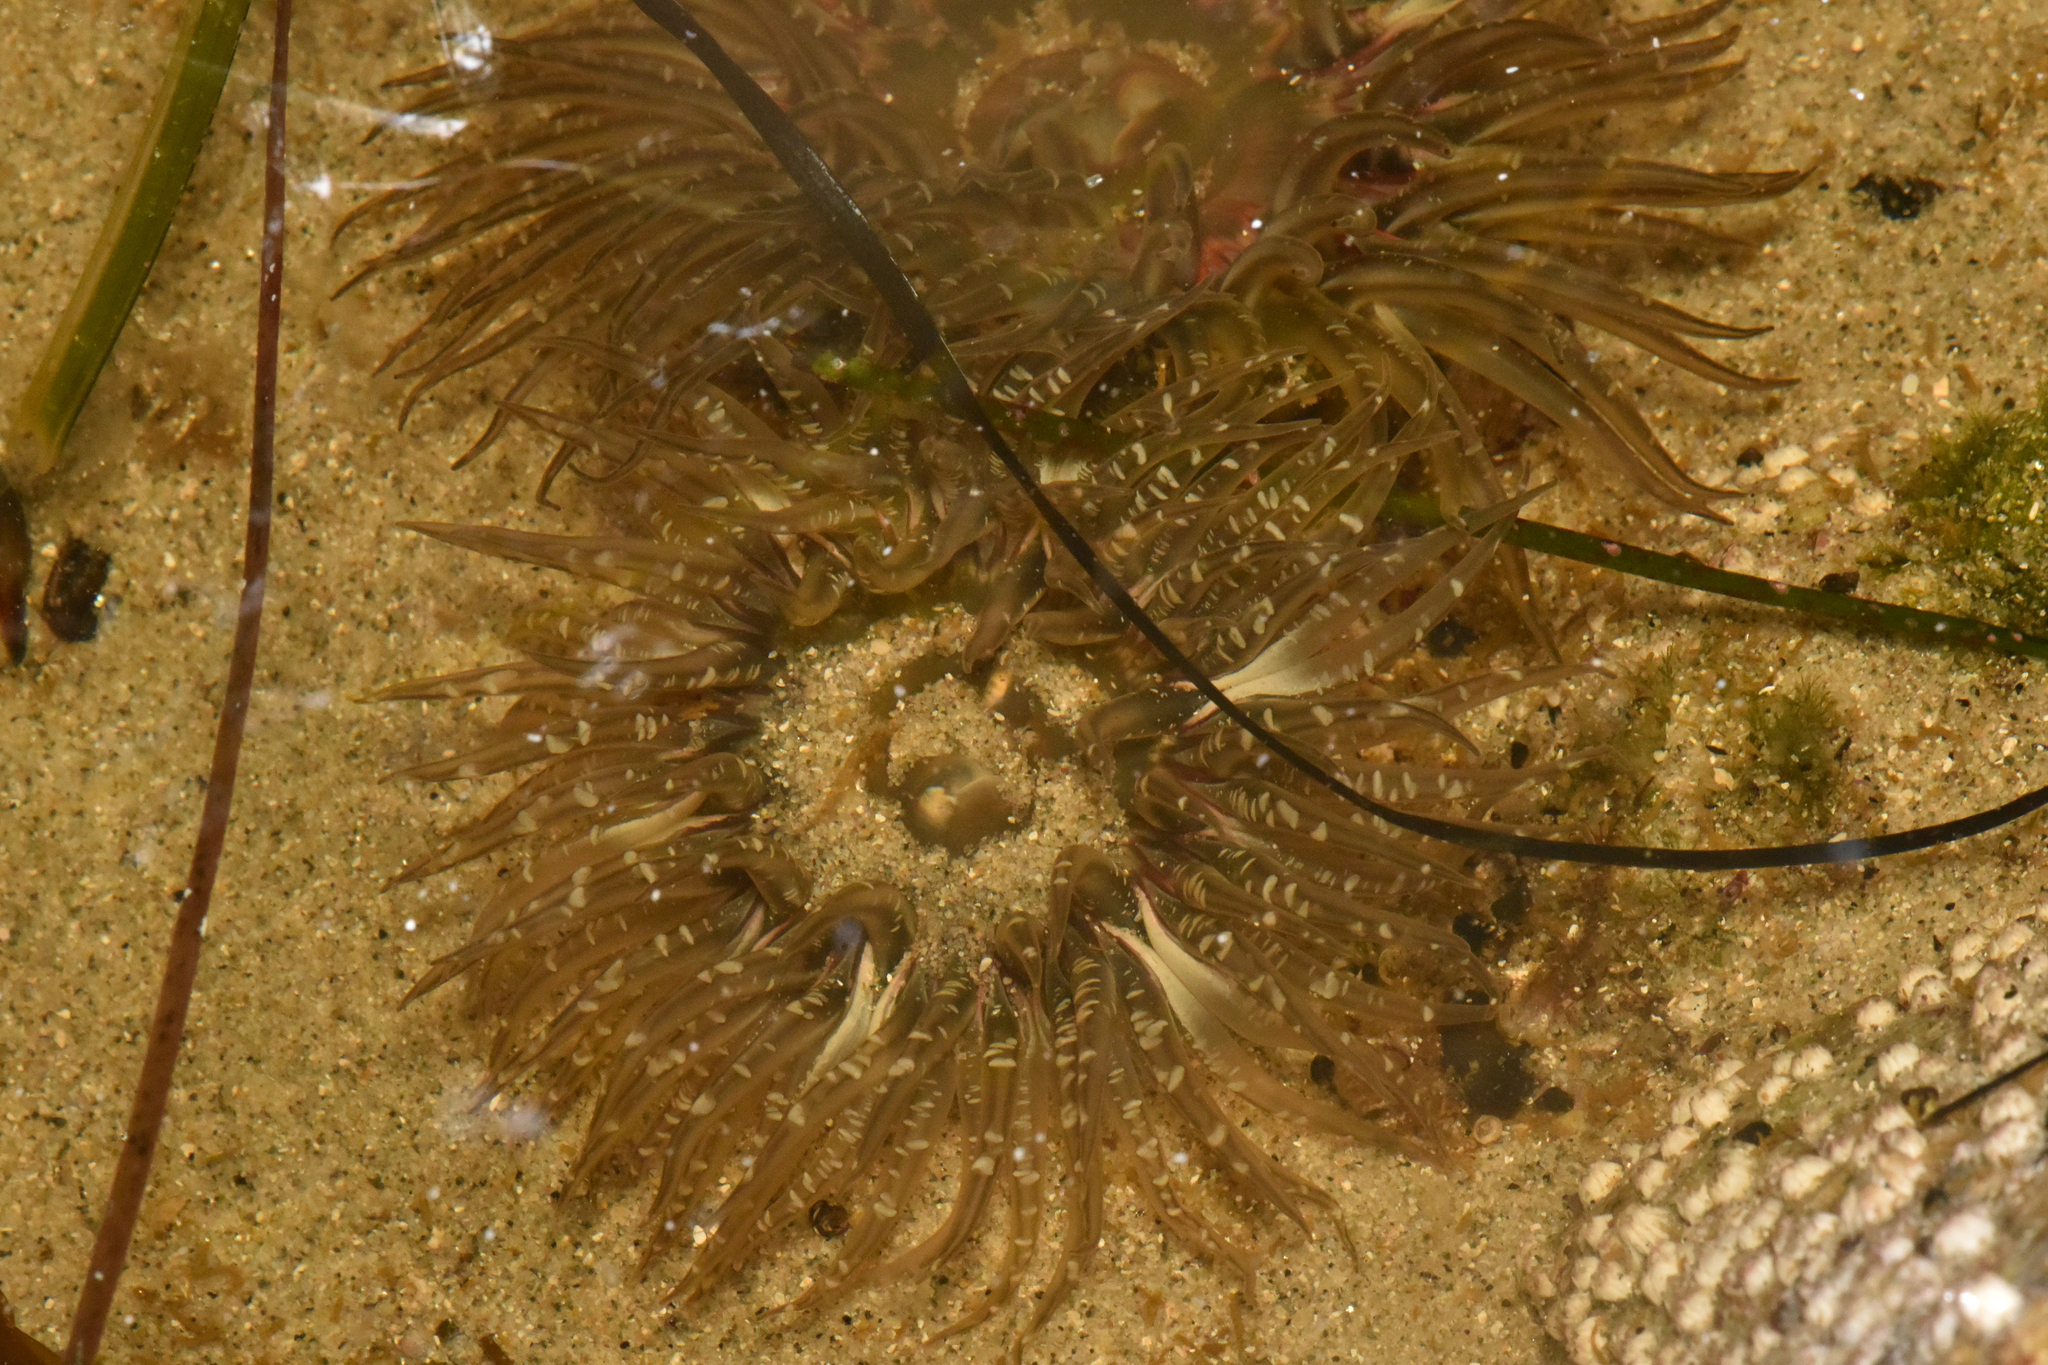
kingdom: Animalia
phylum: Cnidaria
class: Anthozoa
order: Actiniaria
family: Actiniidae
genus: Anthopleura
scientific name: Anthopleura artemisia
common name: Buried sea anemone
